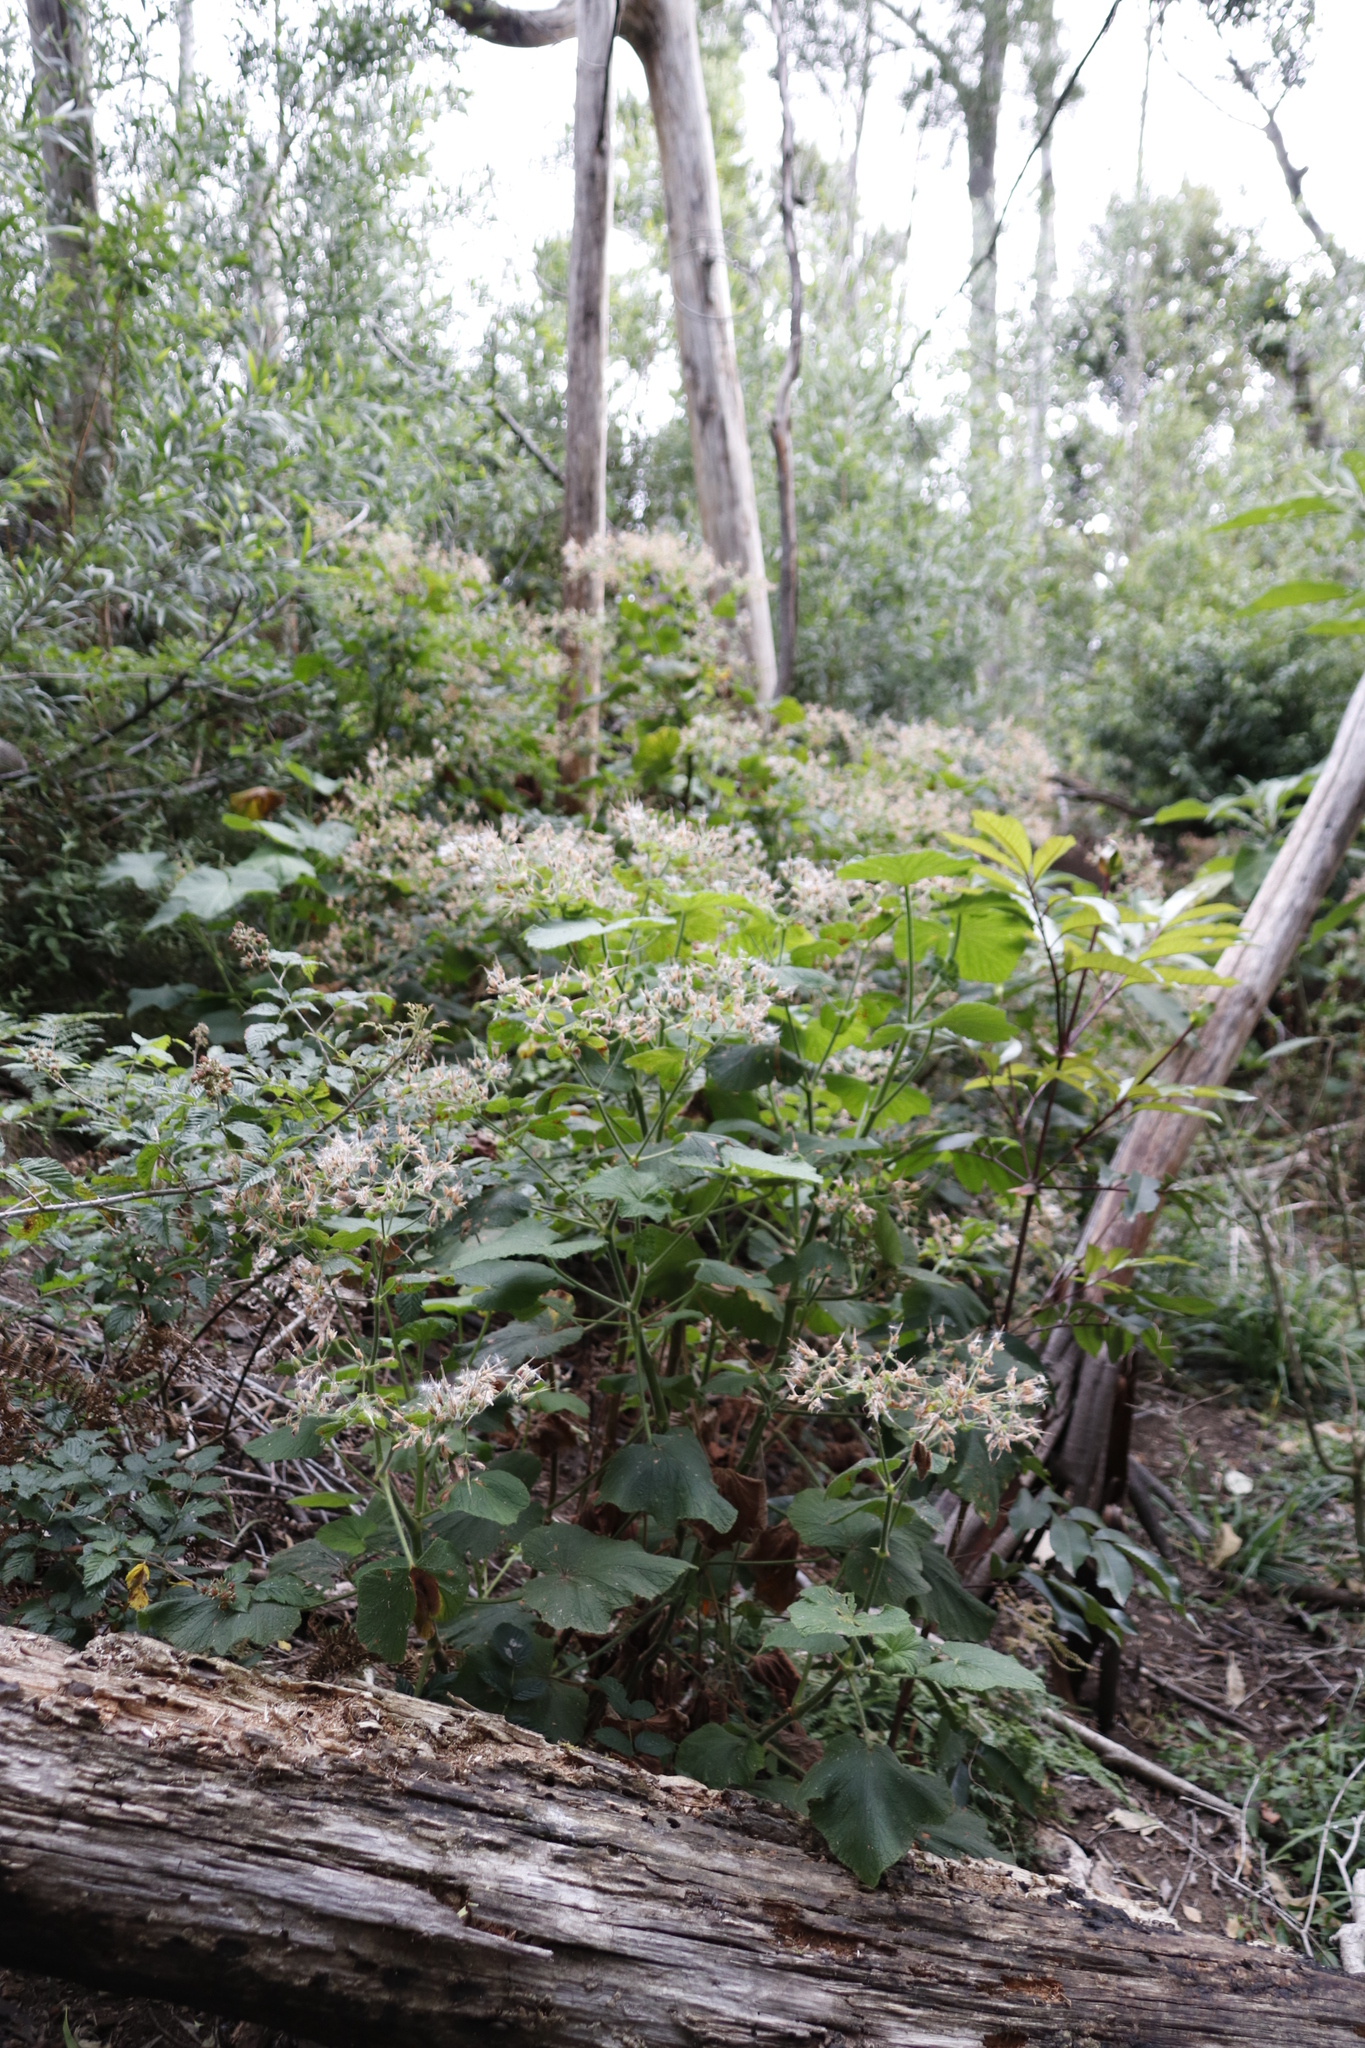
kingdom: Plantae
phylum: Tracheophyta
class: Magnoliopsida
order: Geraniales
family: Geraniaceae
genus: Pelargonium
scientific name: Pelargonium papilionaceum
